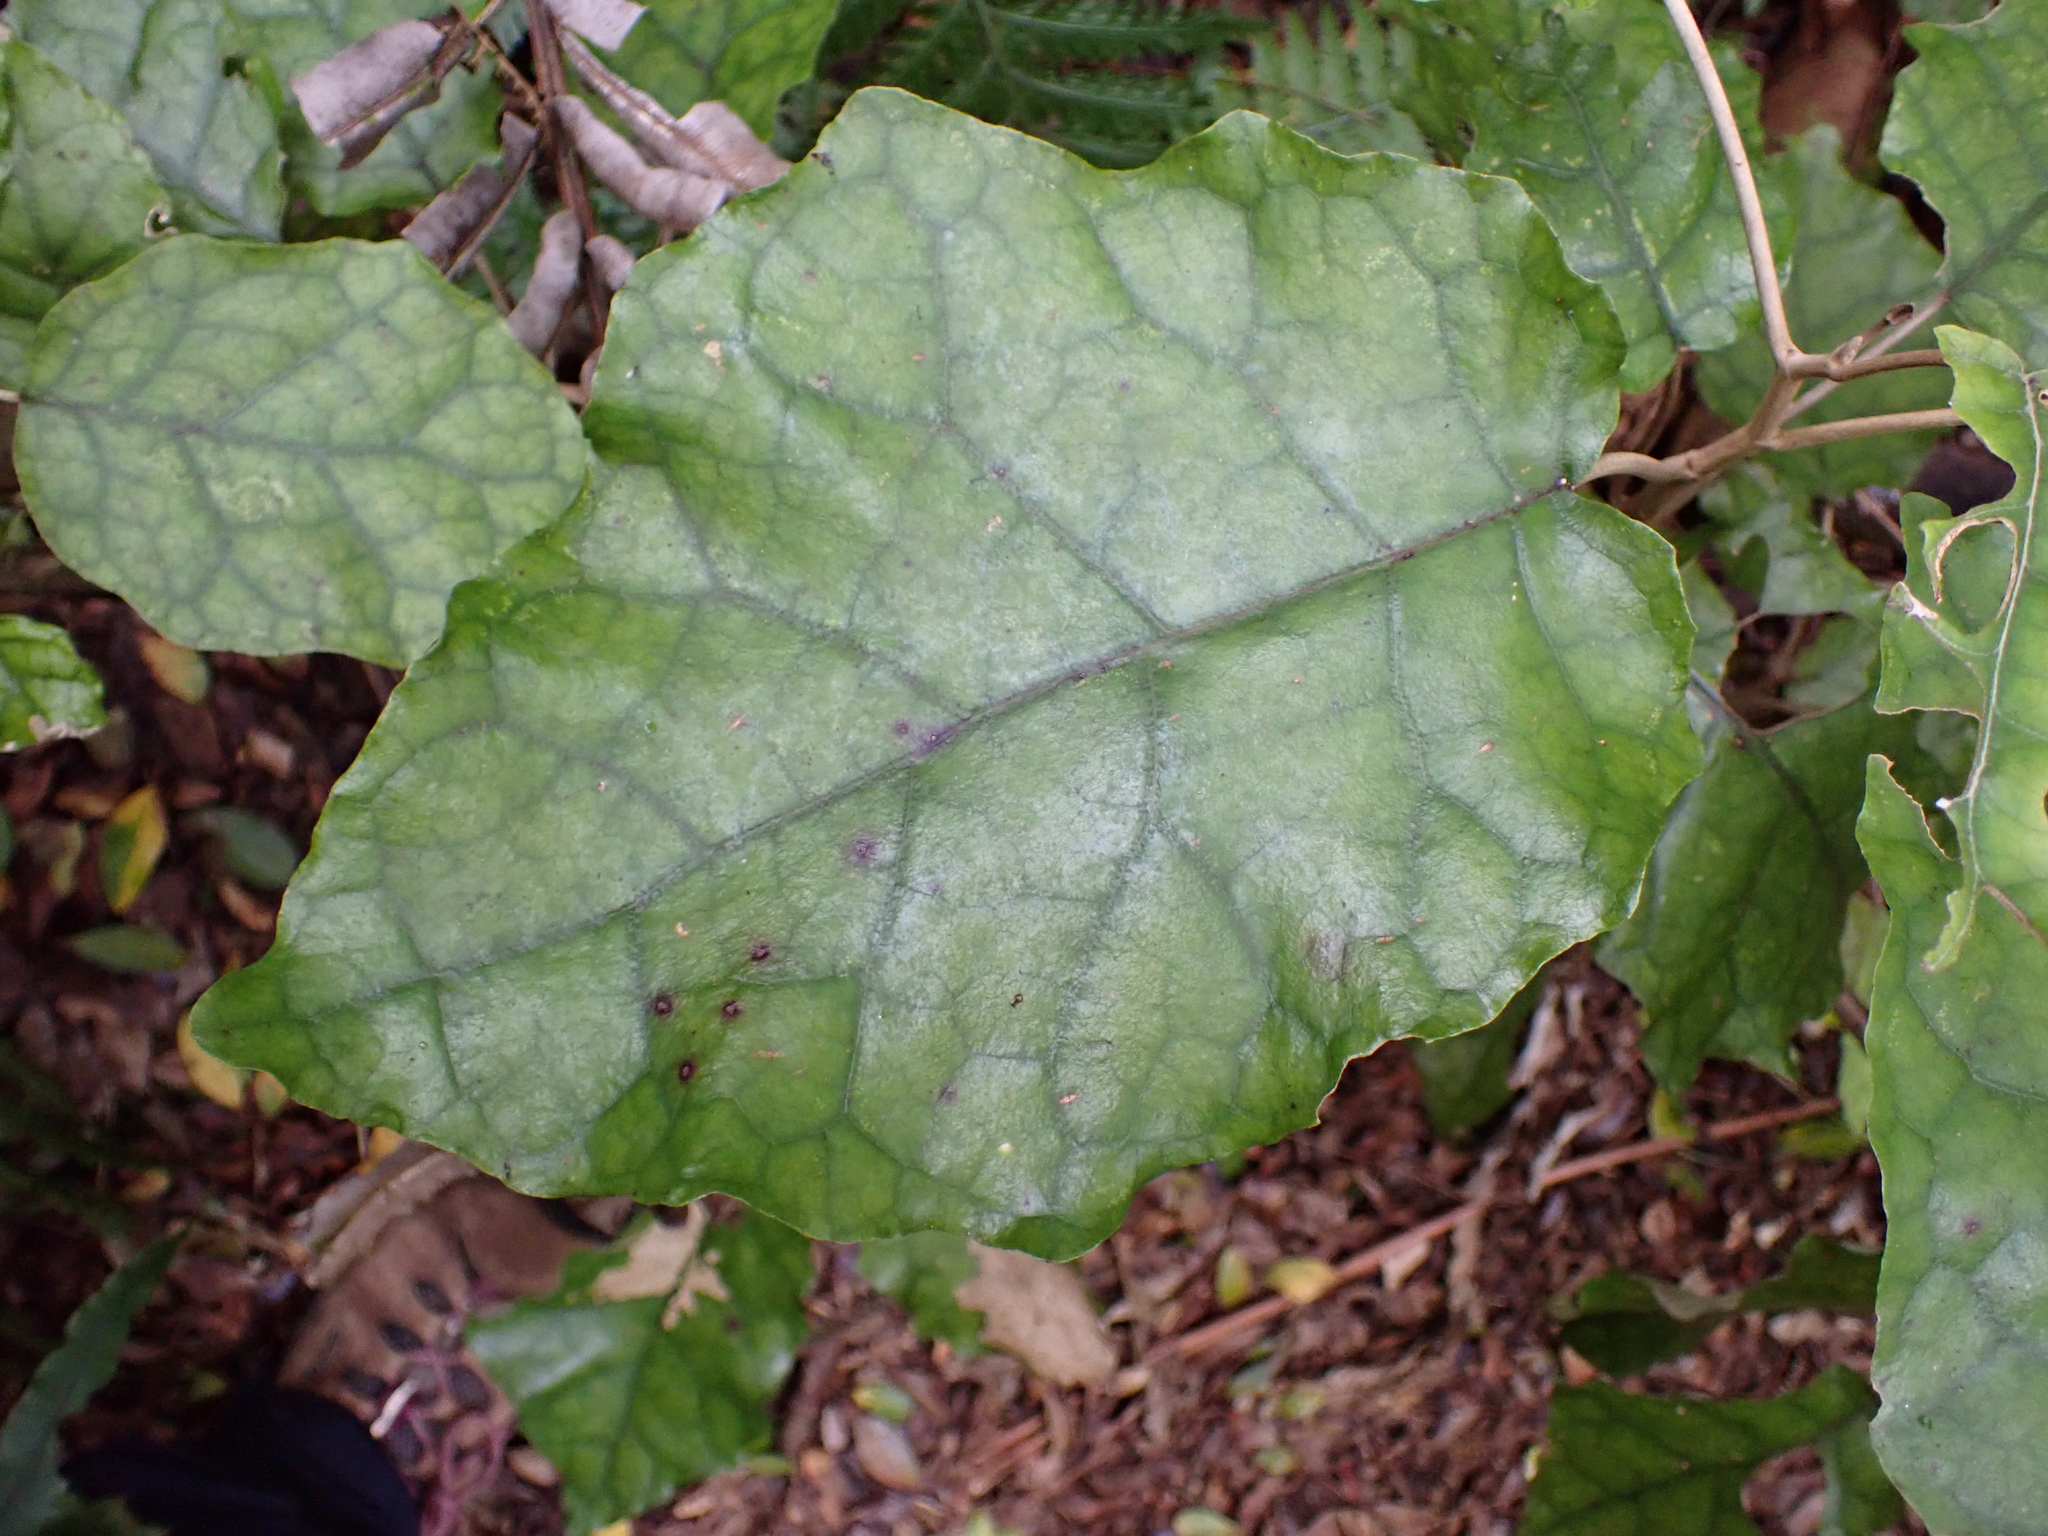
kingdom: Plantae
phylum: Tracheophyta
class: Magnoliopsida
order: Asterales
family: Asteraceae
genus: Brachyglottis
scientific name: Brachyglottis repanda
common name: Hedge ragwort
